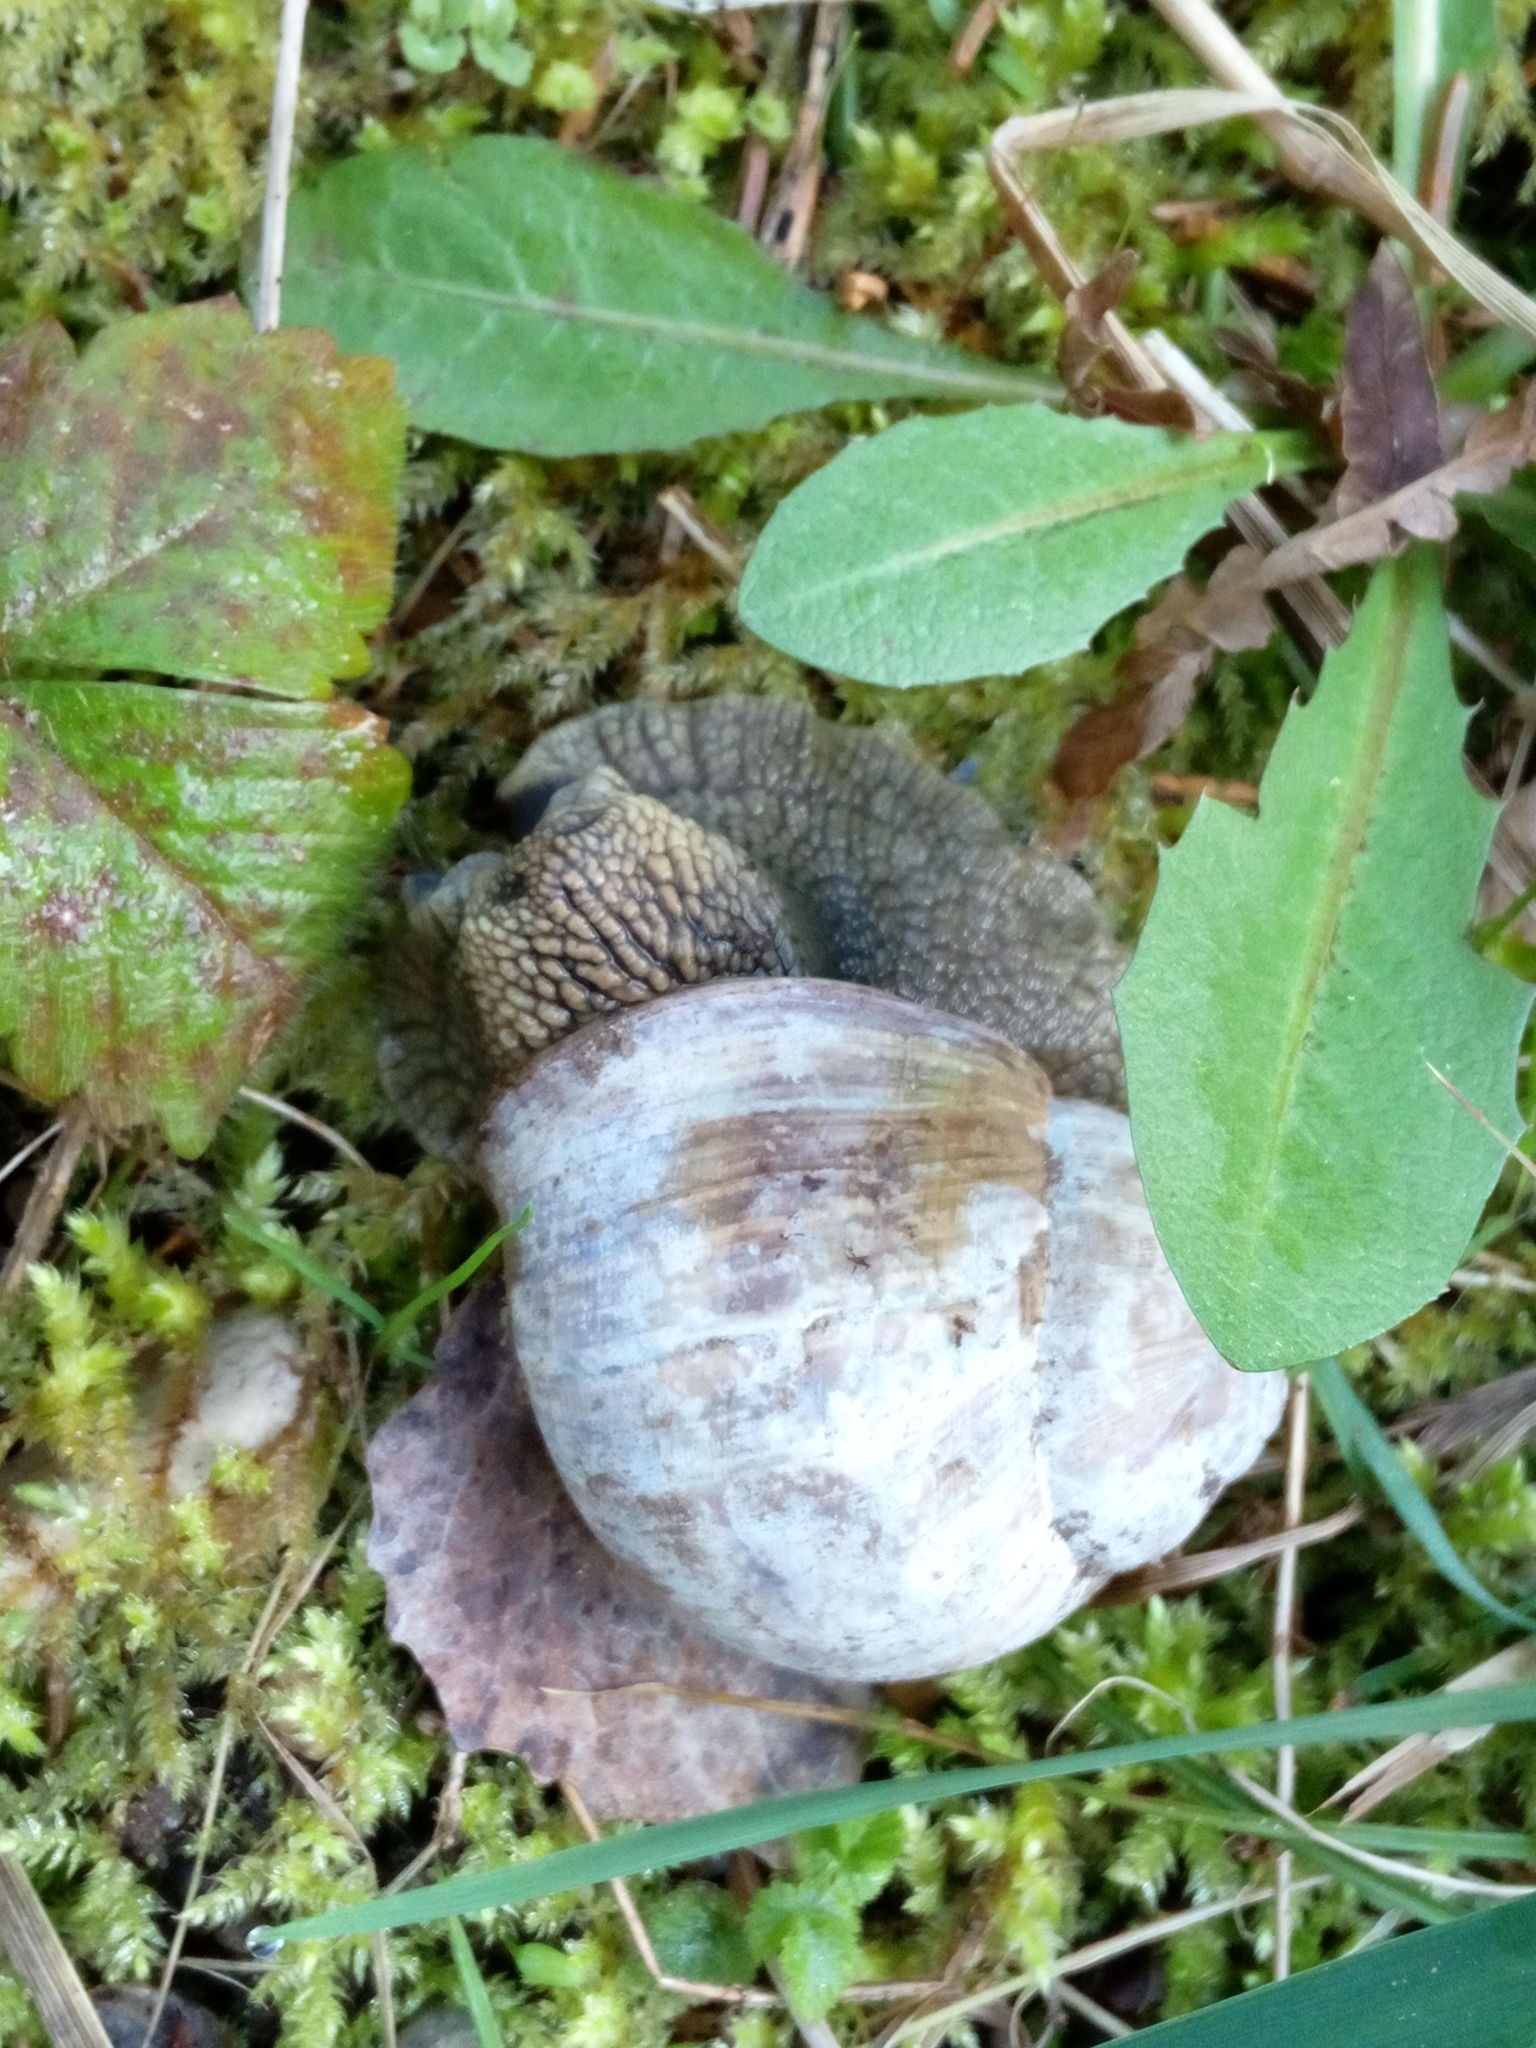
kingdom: Animalia
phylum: Mollusca
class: Gastropoda
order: Stylommatophora
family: Helicidae
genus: Helix
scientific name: Helix pomatia
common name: Roman snail
